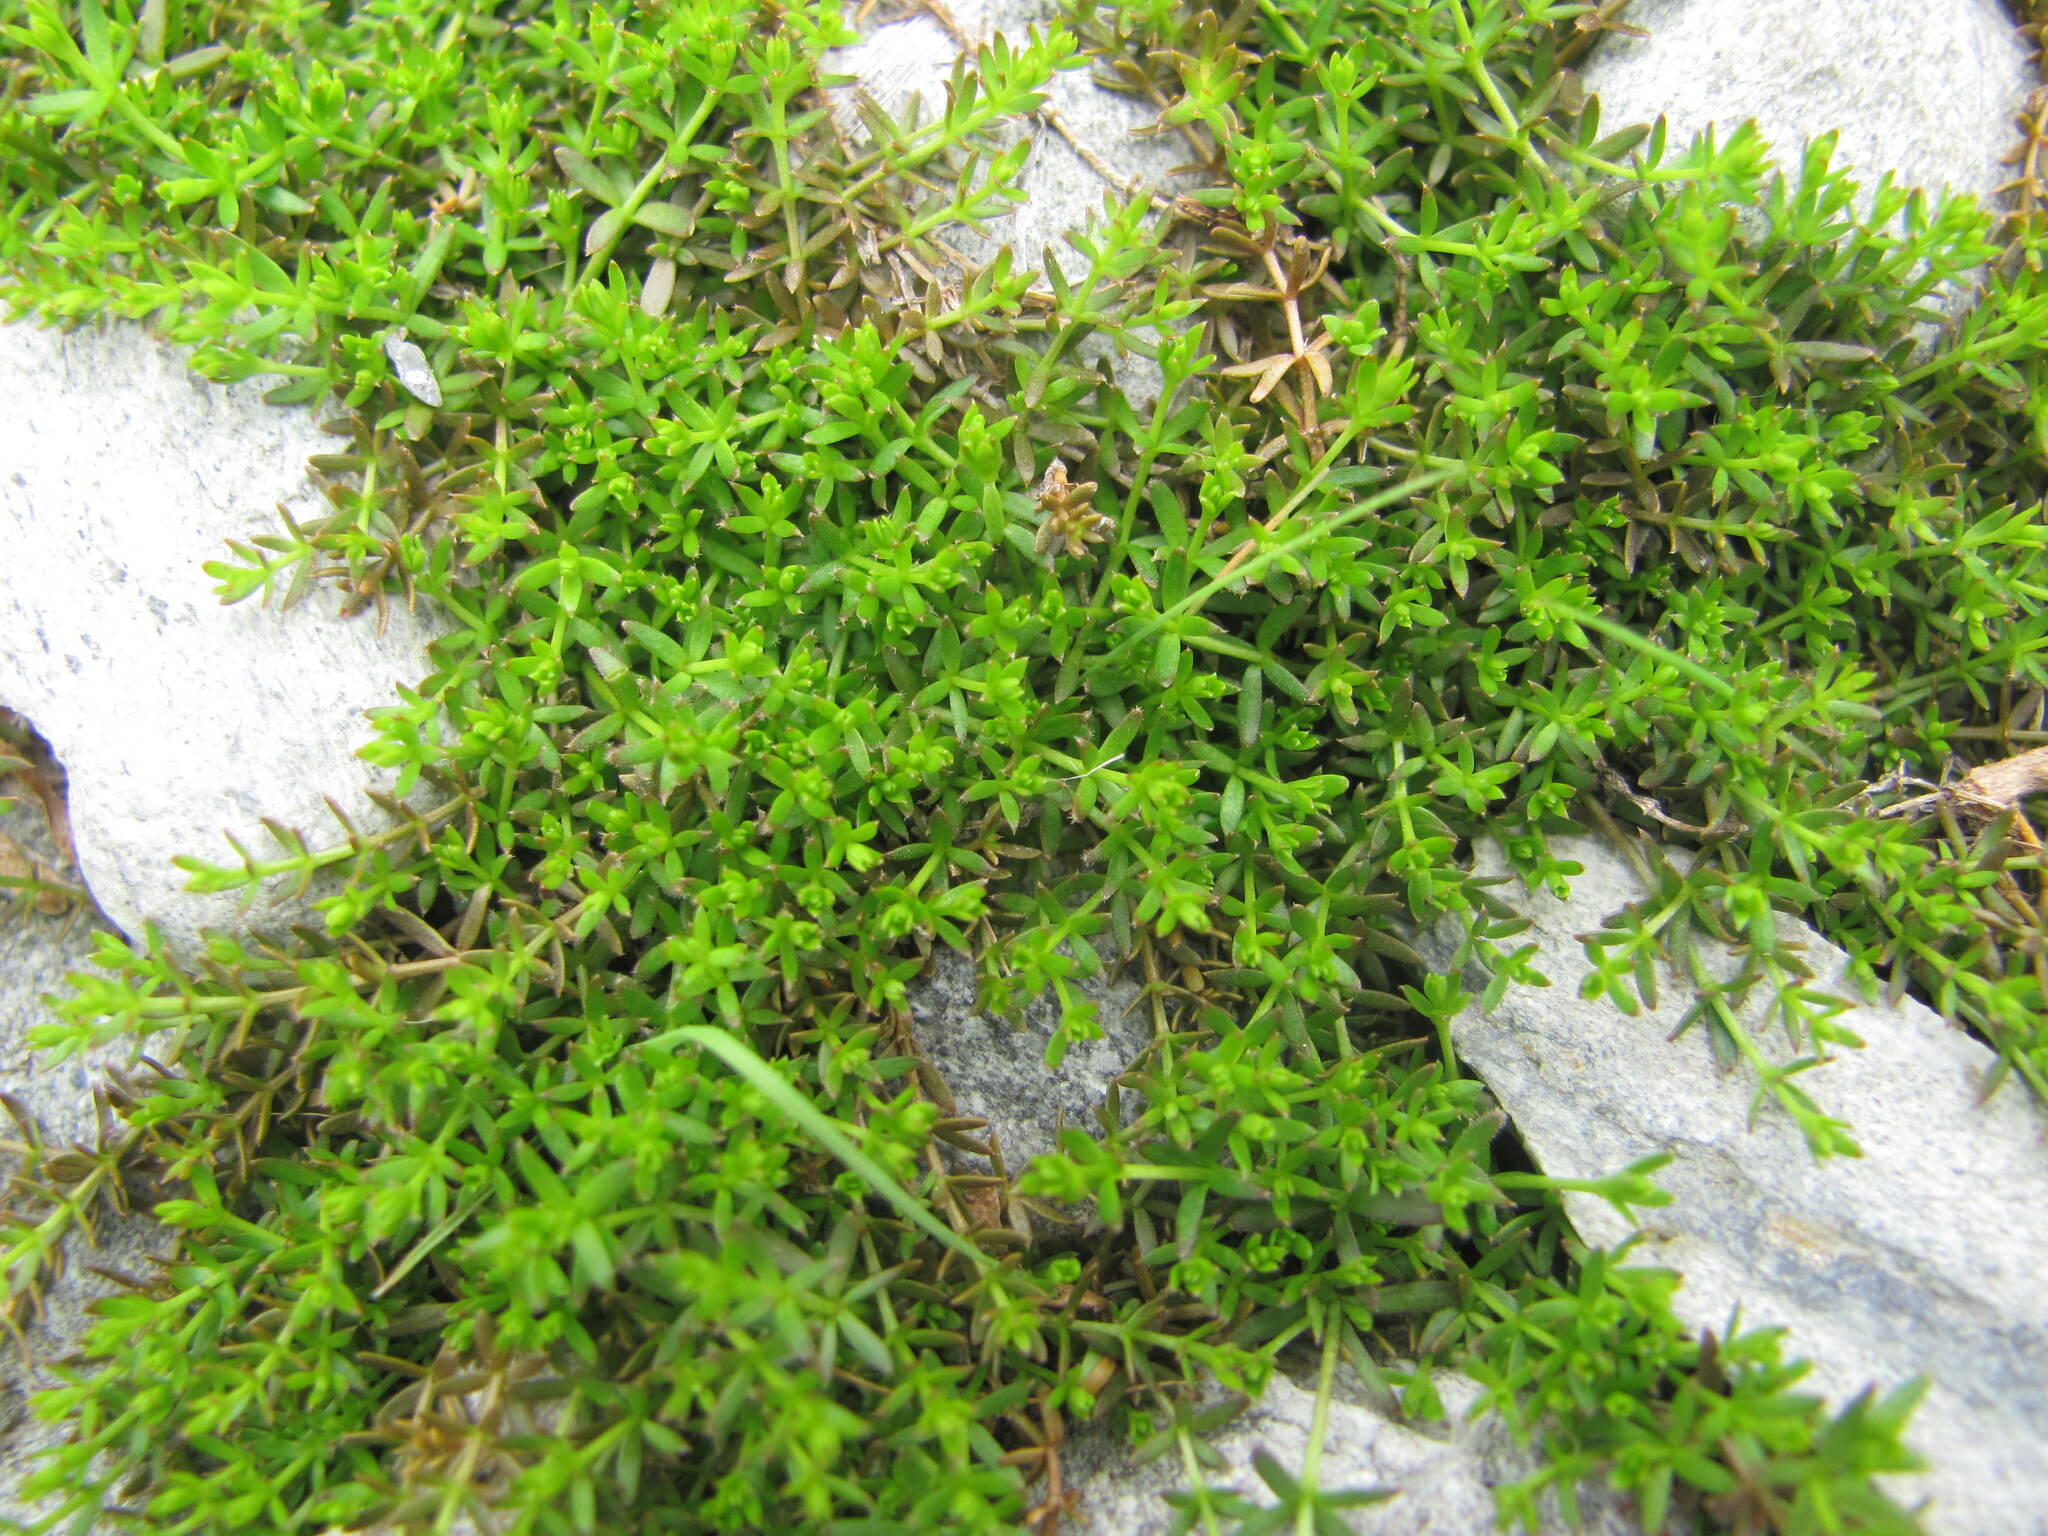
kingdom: Plantae
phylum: Tracheophyta
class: Magnoliopsida
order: Gentianales
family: Rubiaceae
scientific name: Rubiaceae
